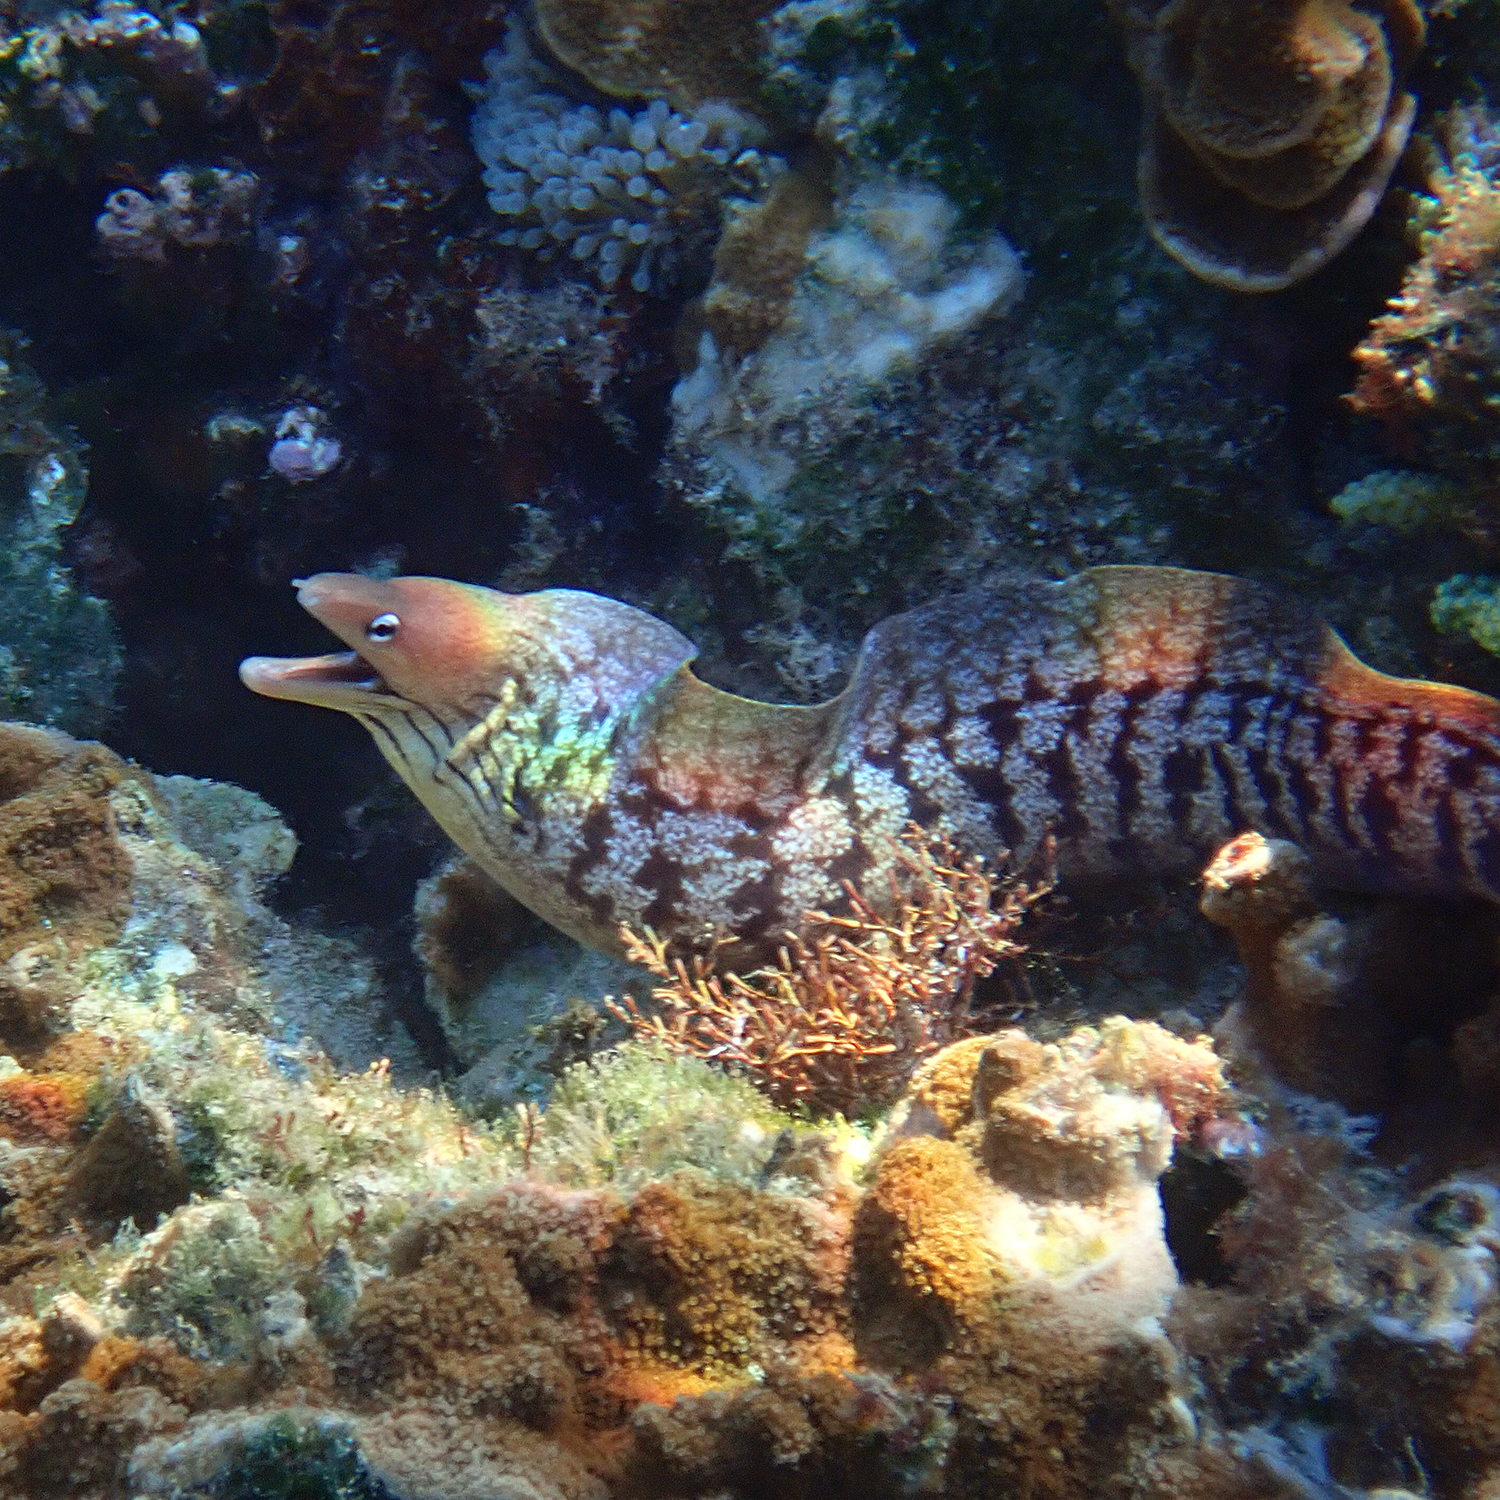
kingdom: Animalia
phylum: Chordata
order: Anguilliformes
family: Muraenidae
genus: Gymnothorax
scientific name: Gymnothorax nubilus
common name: Grey moray
